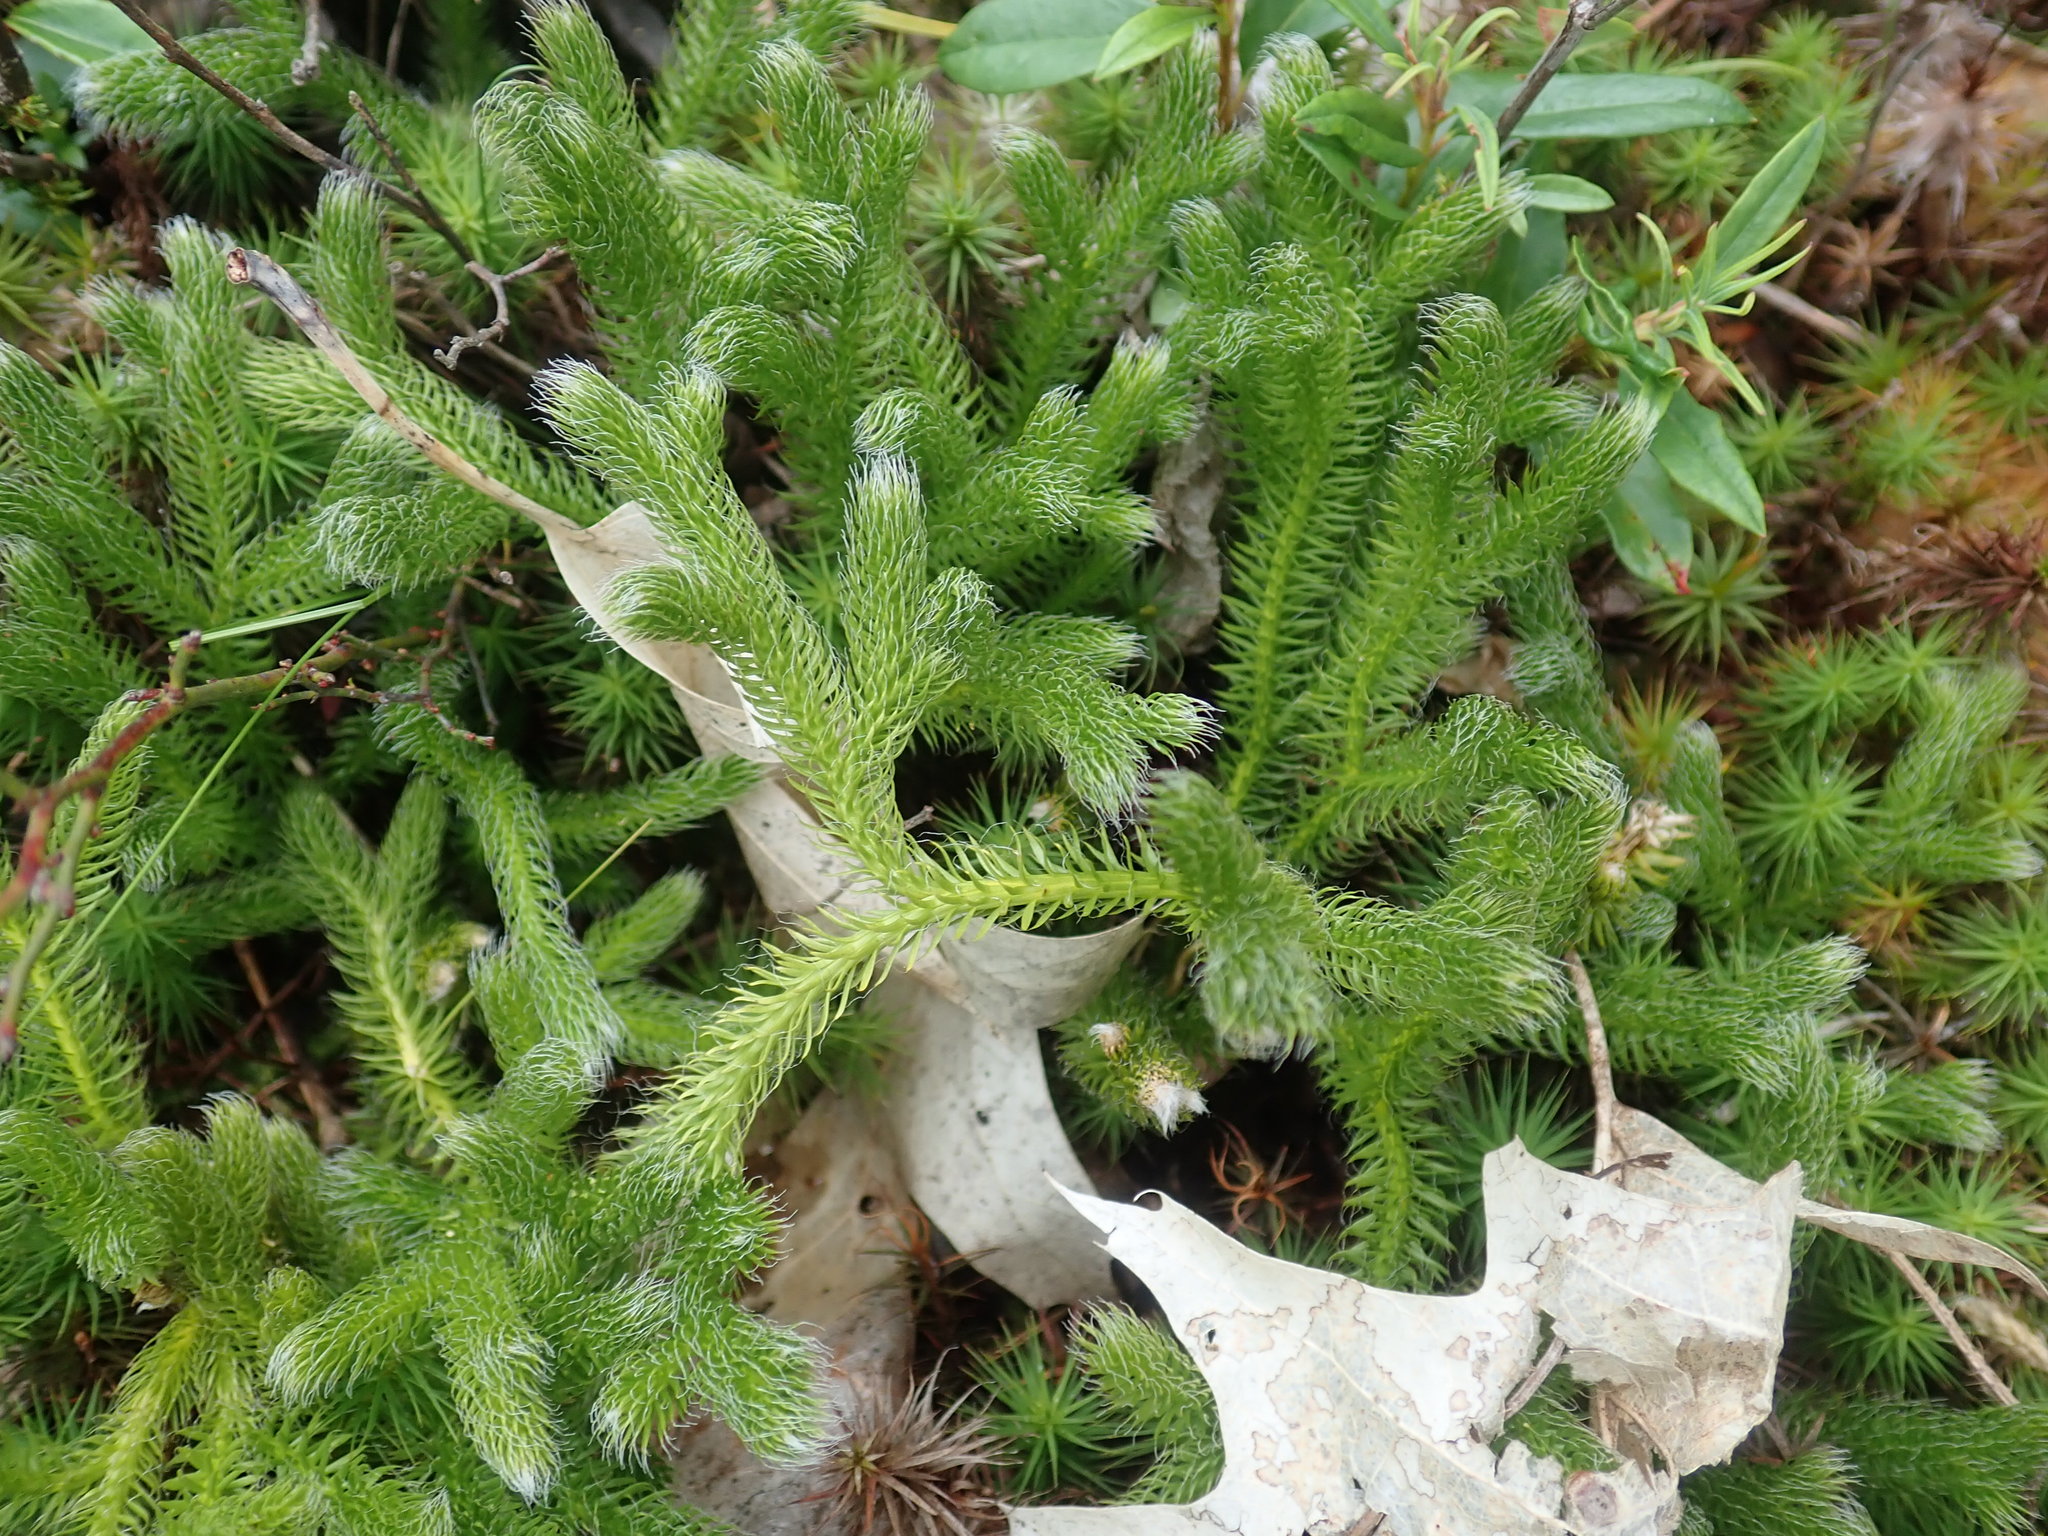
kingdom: Plantae
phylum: Tracheophyta
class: Lycopodiopsida
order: Lycopodiales
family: Lycopodiaceae
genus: Lycopodium
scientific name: Lycopodium clavatum
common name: Stag's-horn clubmoss
